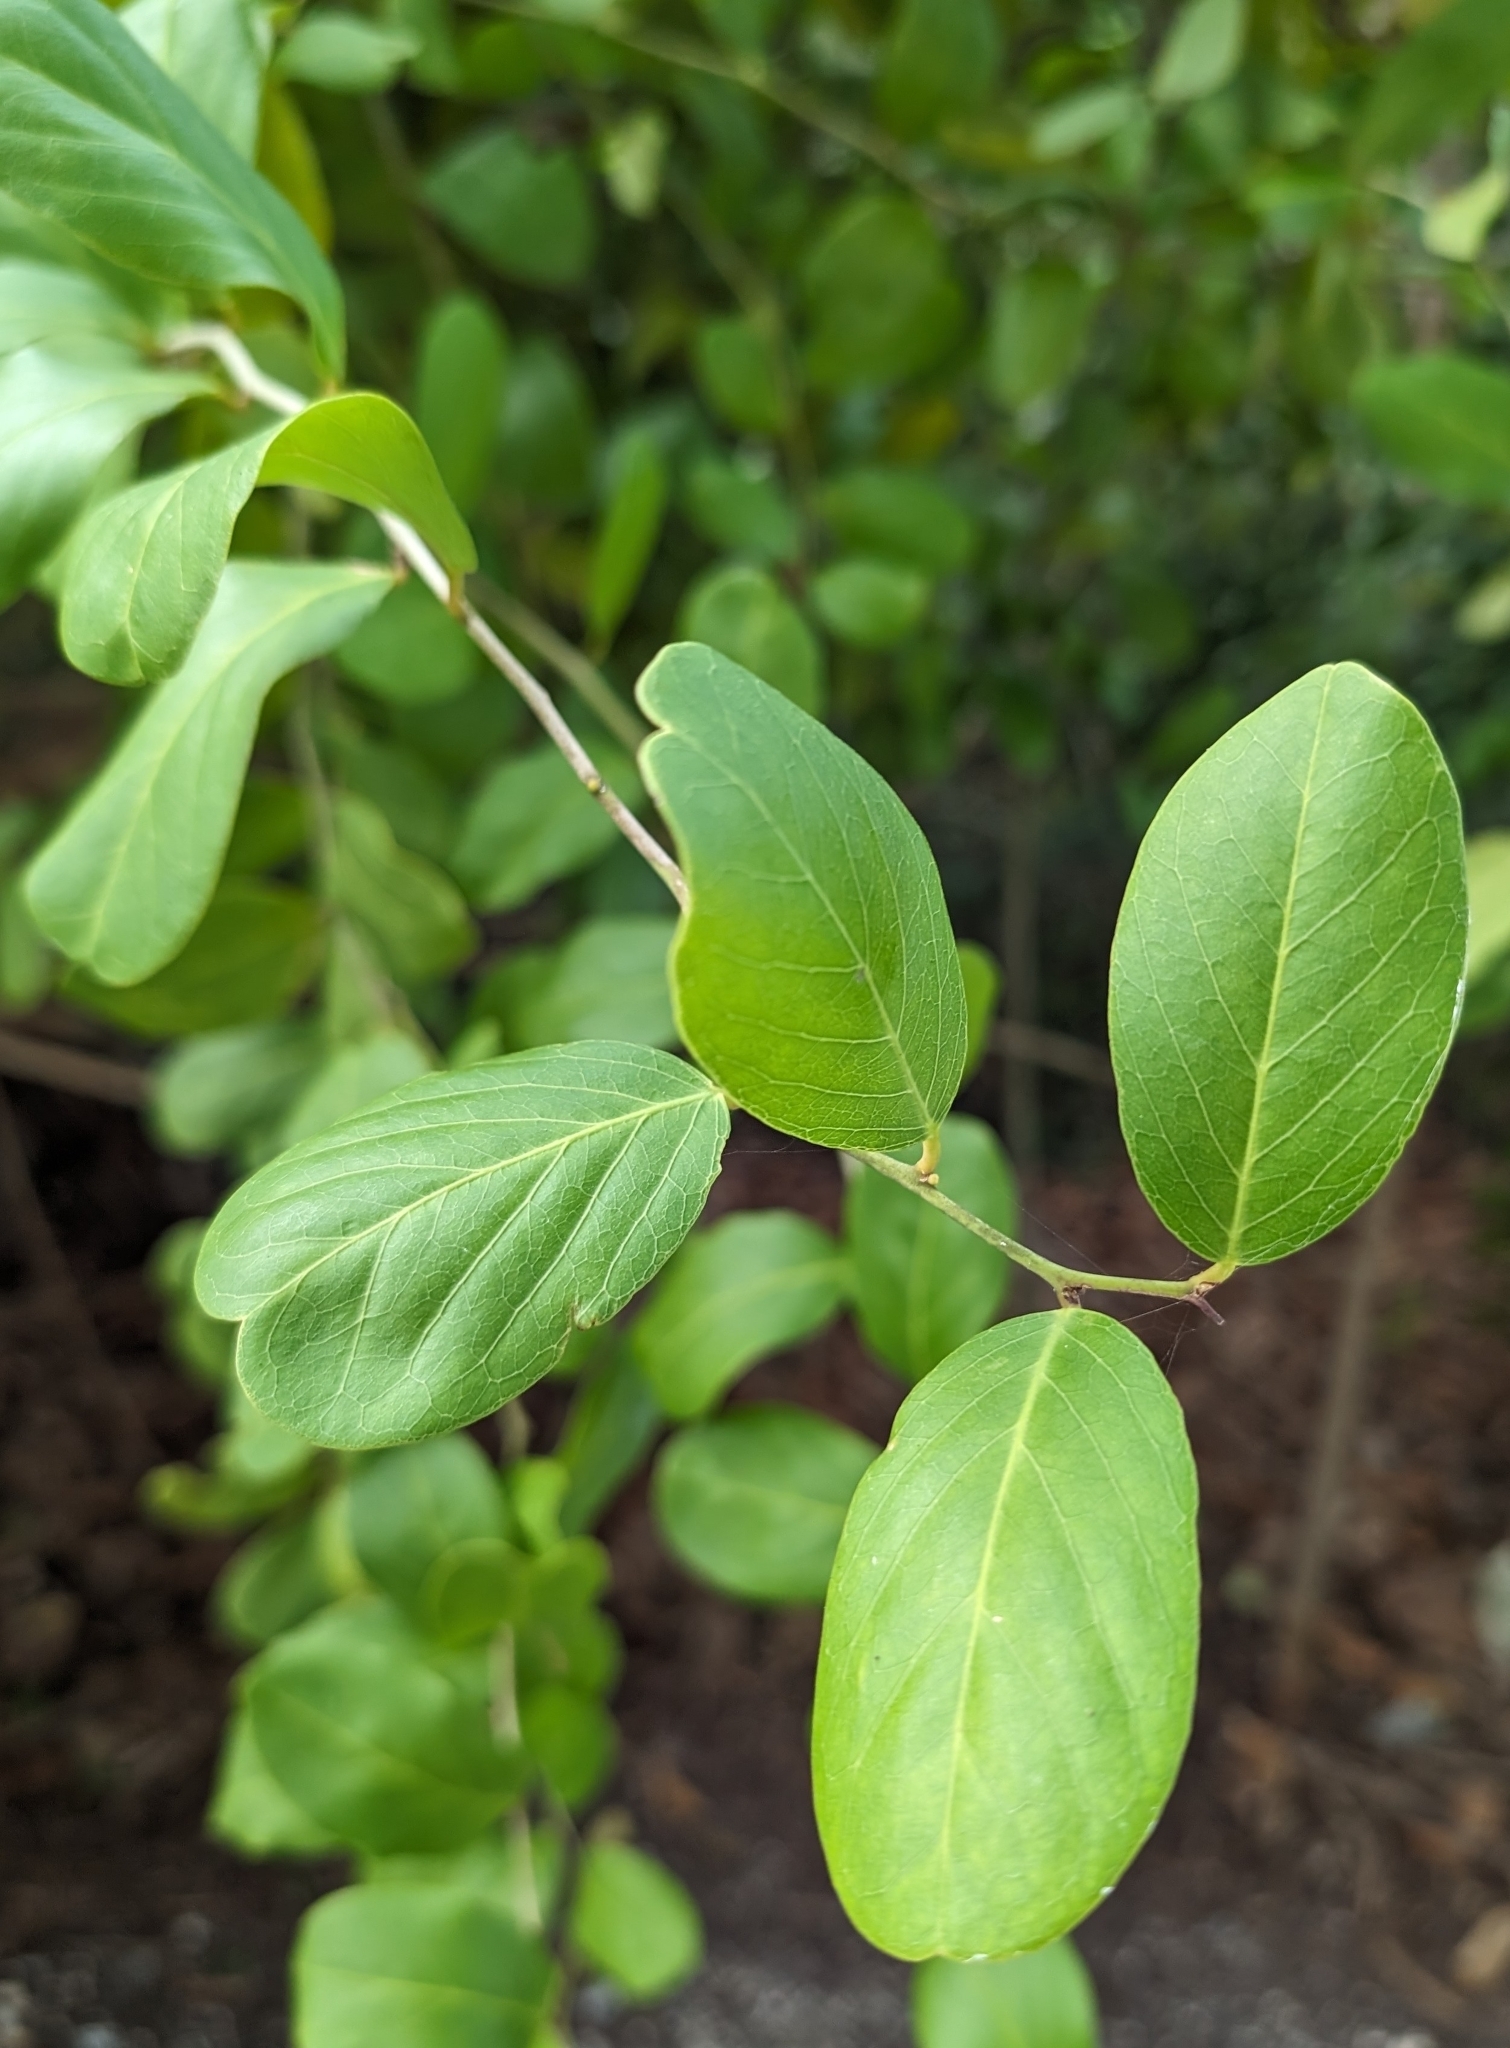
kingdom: Plantae
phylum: Tracheophyta
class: Magnoliopsida
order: Brassicales
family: Capparaceae
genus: Cynophalla
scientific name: Cynophalla flexuosa
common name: Capertree
